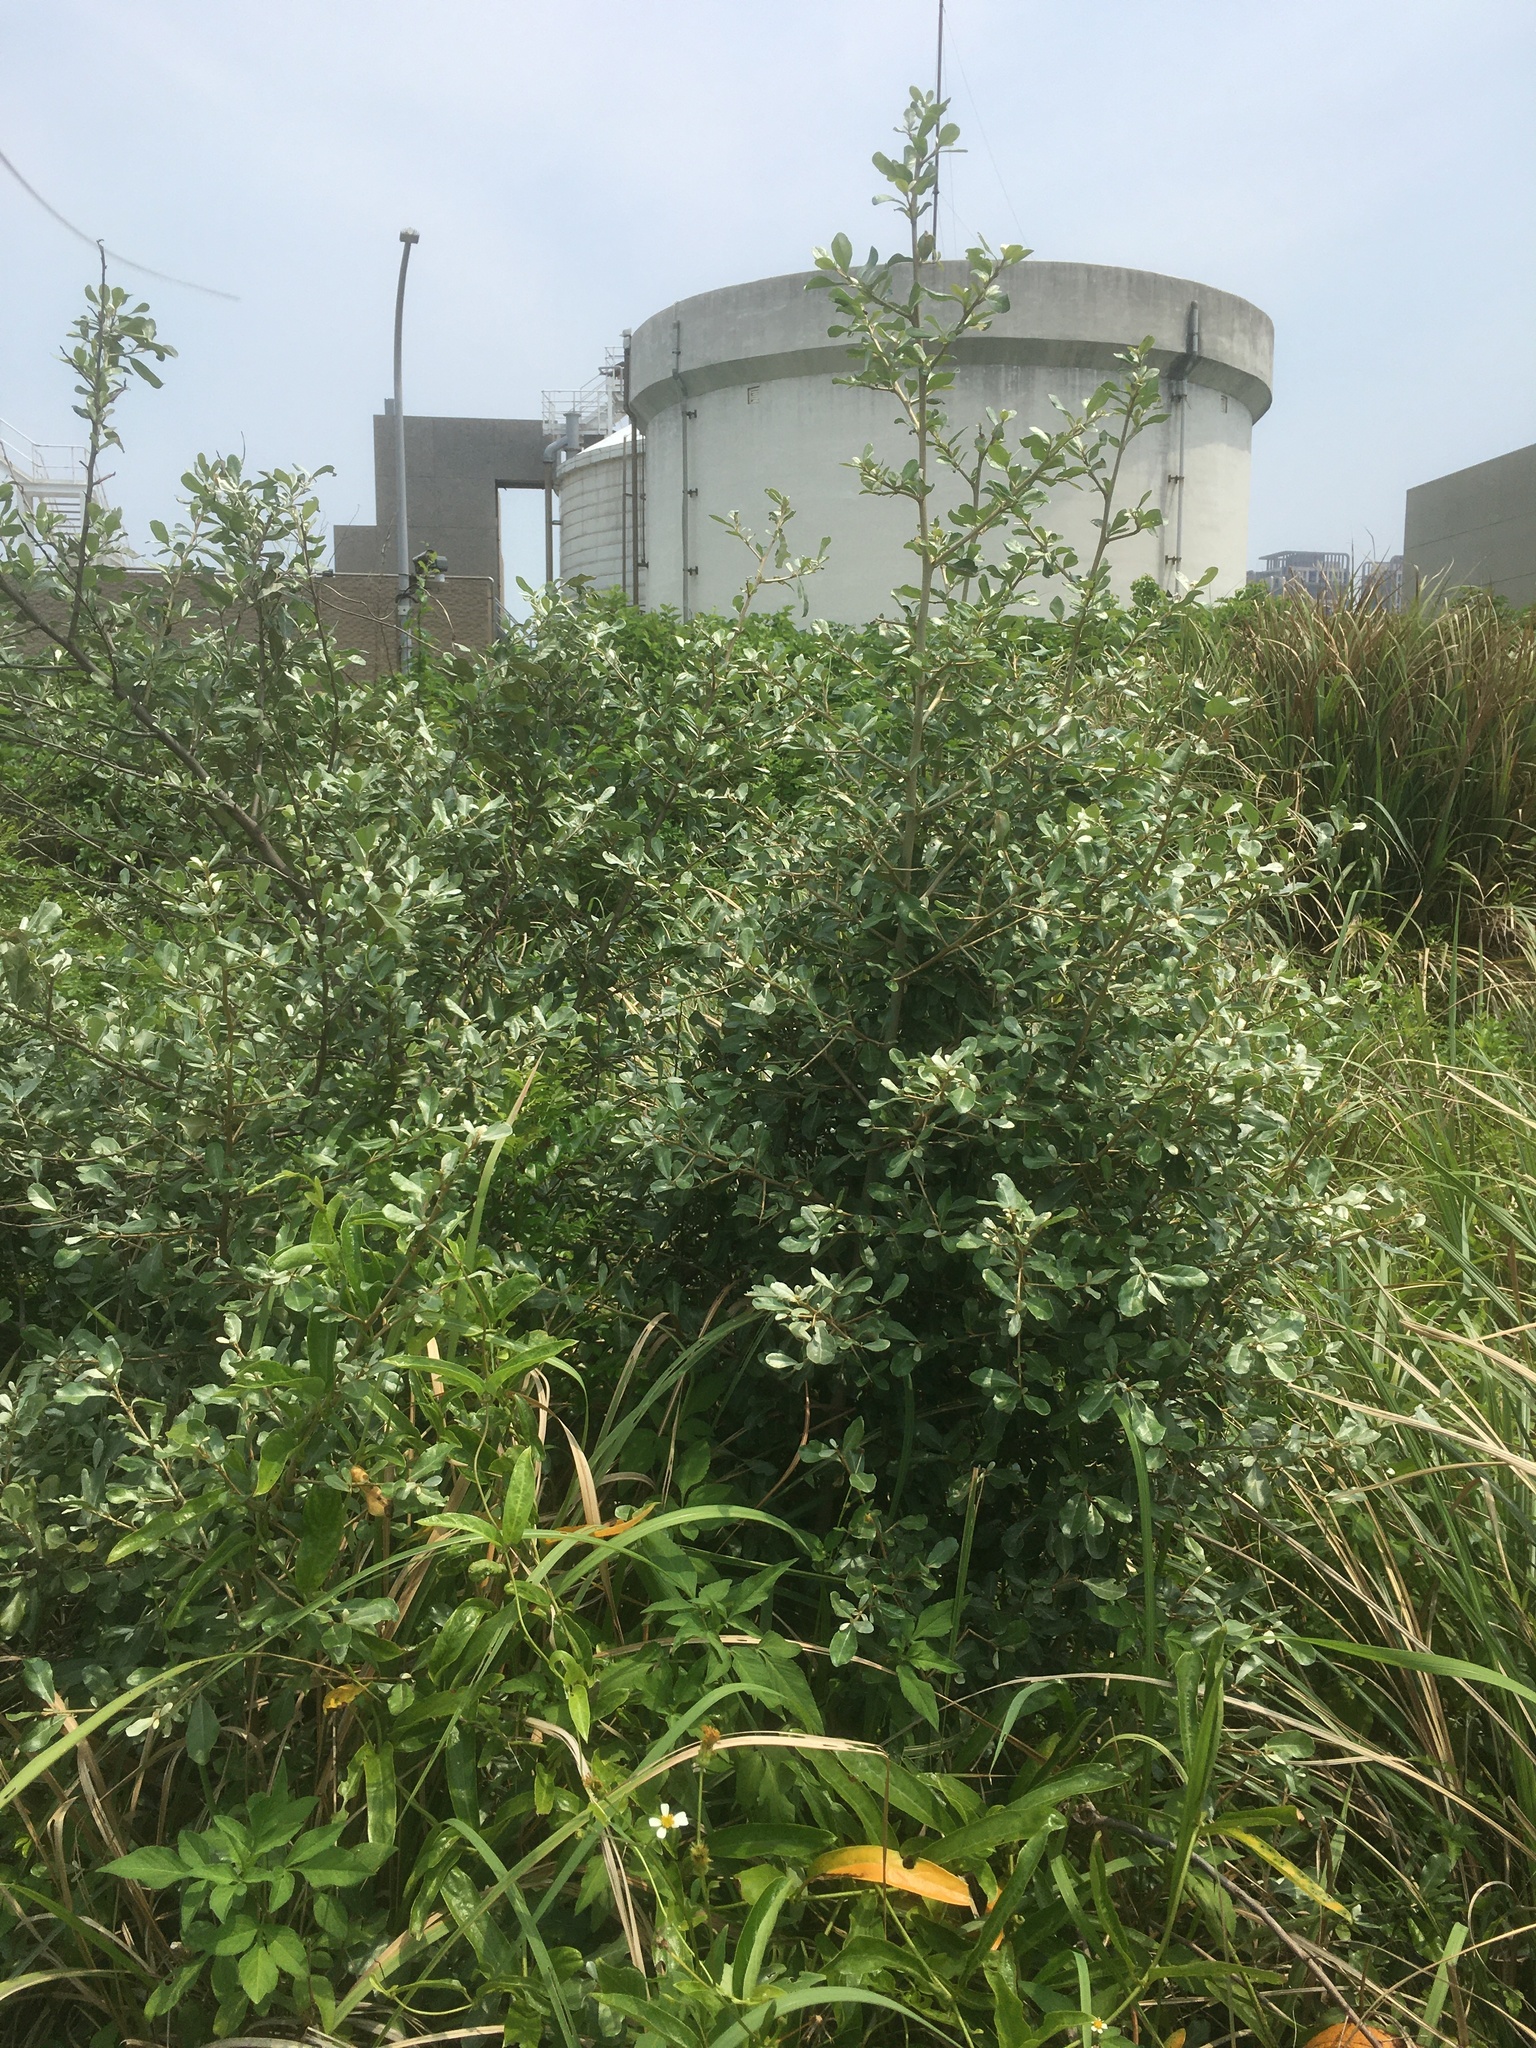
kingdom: Plantae
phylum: Tracheophyta
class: Magnoliopsida
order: Rosales
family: Elaeagnaceae
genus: Elaeagnus
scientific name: Elaeagnus oldhamii
